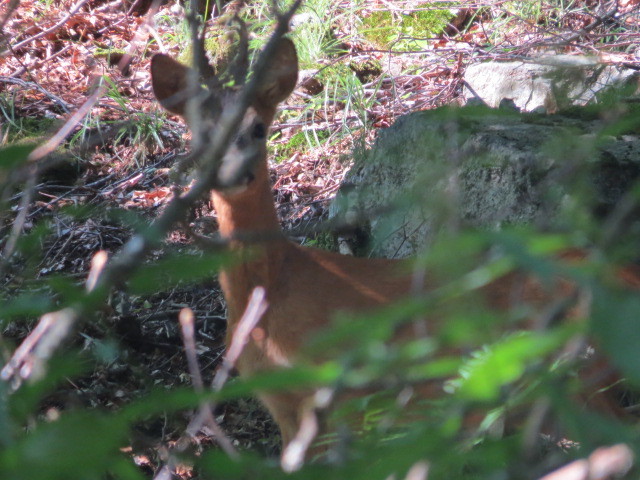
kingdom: Animalia
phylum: Chordata
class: Mammalia
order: Artiodactyla
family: Cervidae
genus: Capreolus
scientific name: Capreolus capreolus
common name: Western roe deer
